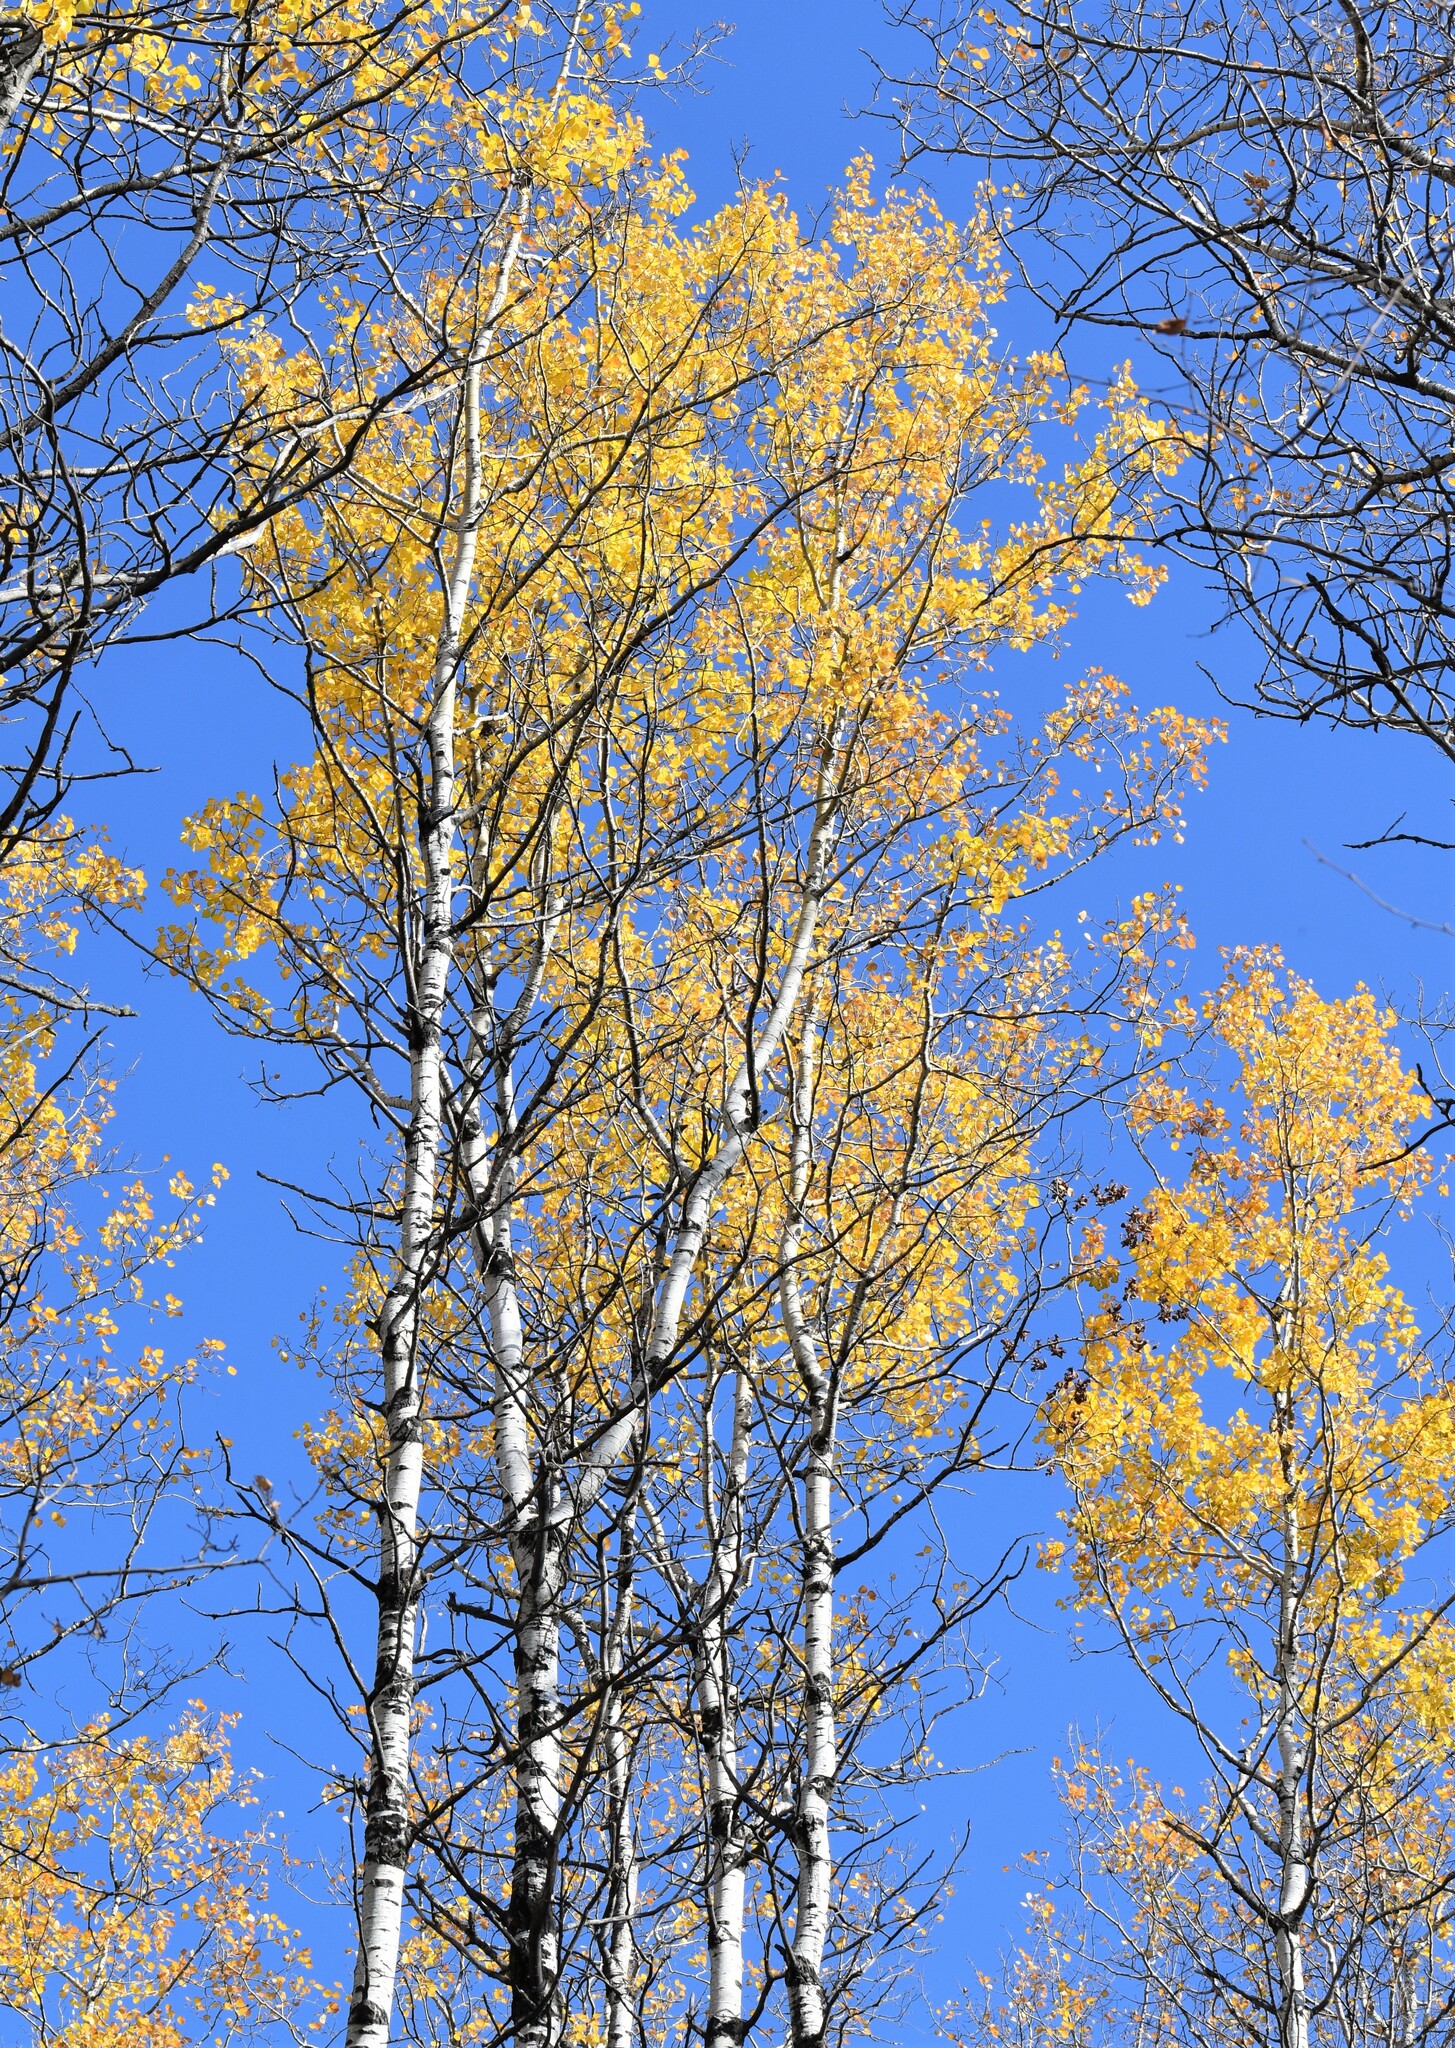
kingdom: Plantae
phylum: Tracheophyta
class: Magnoliopsida
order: Malpighiales
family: Salicaceae
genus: Populus
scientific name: Populus tremuloides
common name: Quaking aspen
